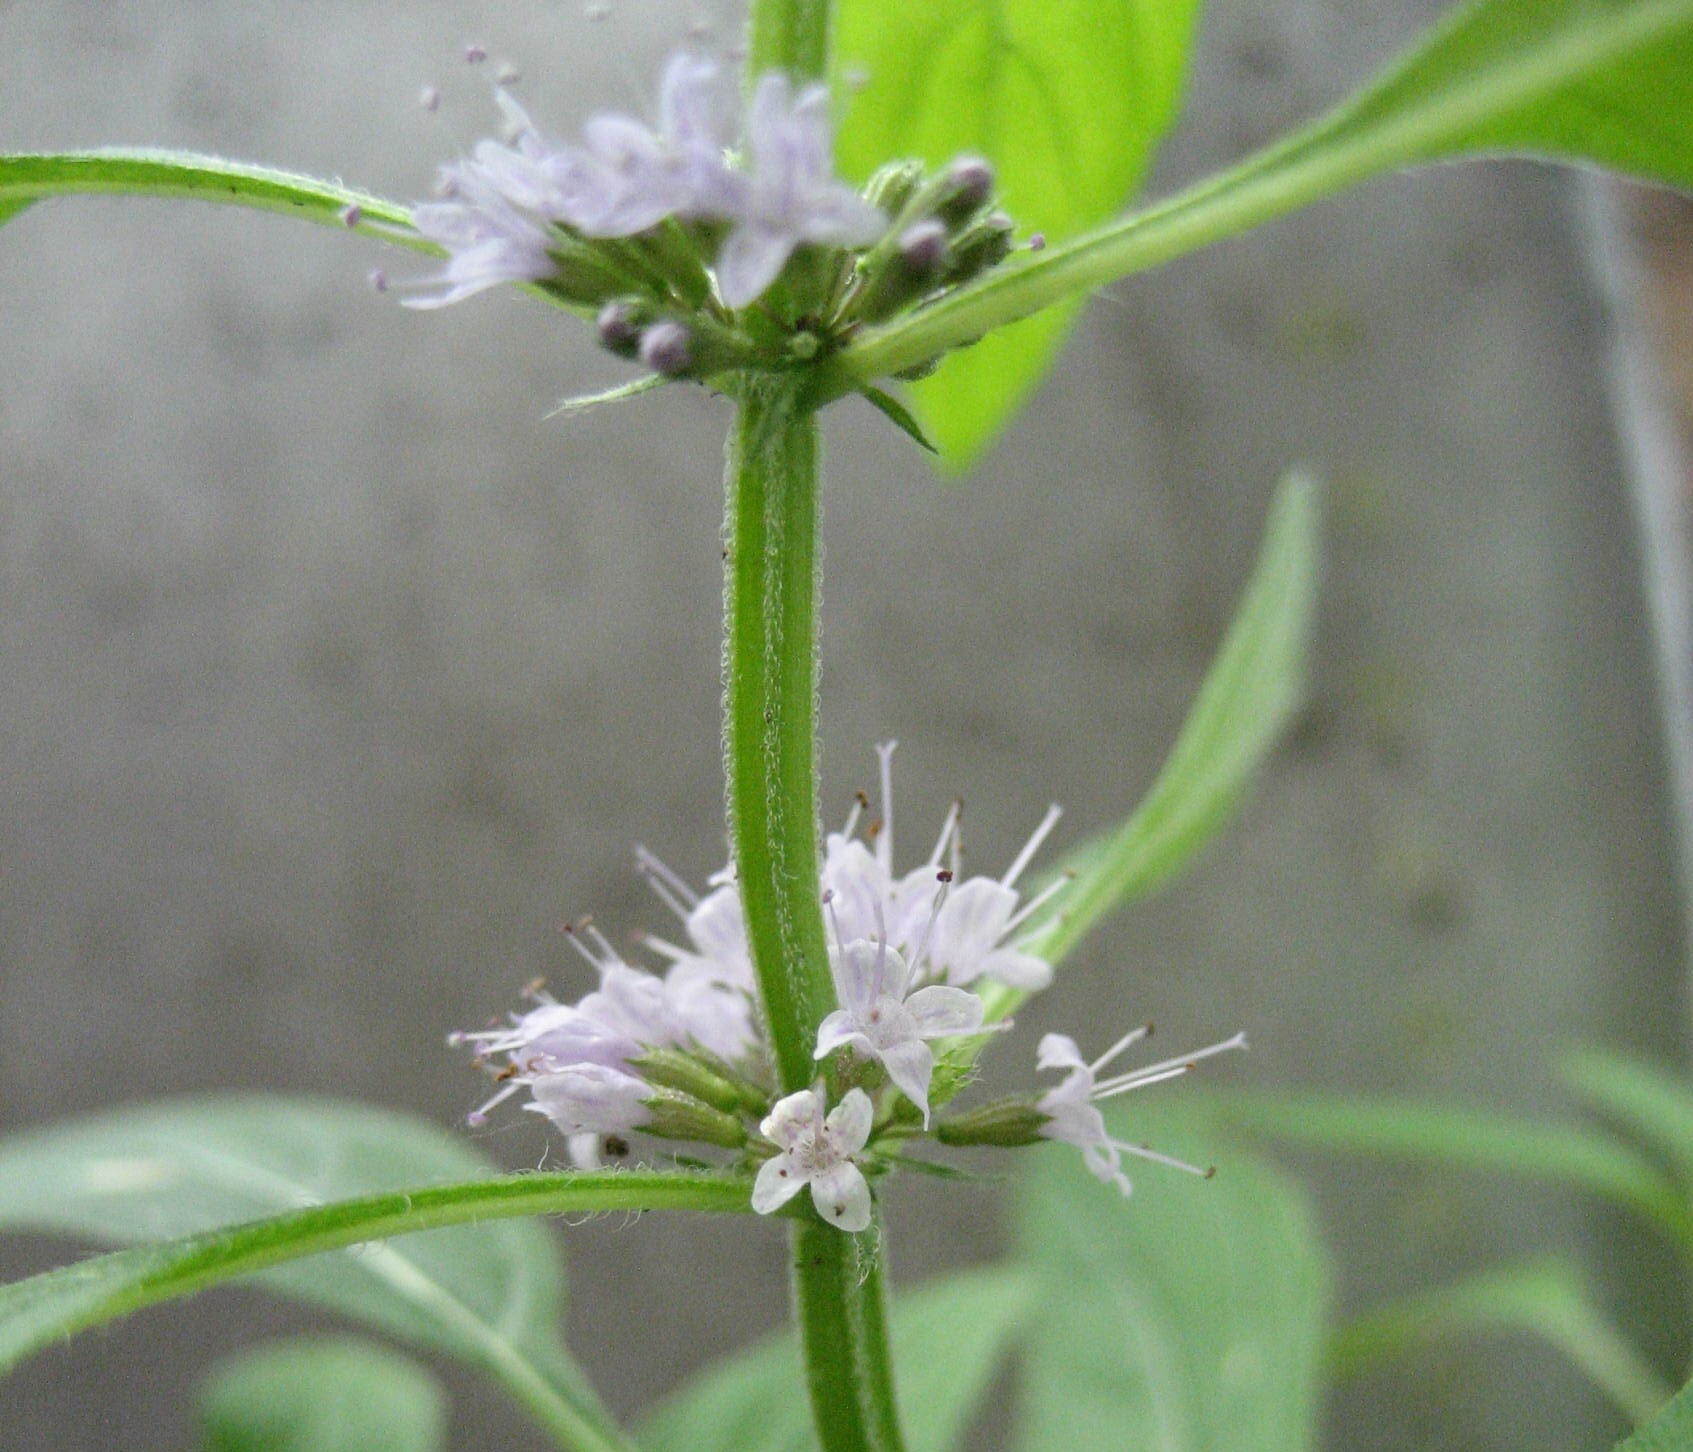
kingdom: Plantae
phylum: Tracheophyta
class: Magnoliopsida
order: Lamiales
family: Lamiaceae
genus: Mentha
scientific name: Mentha canadensis
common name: American corn mint
